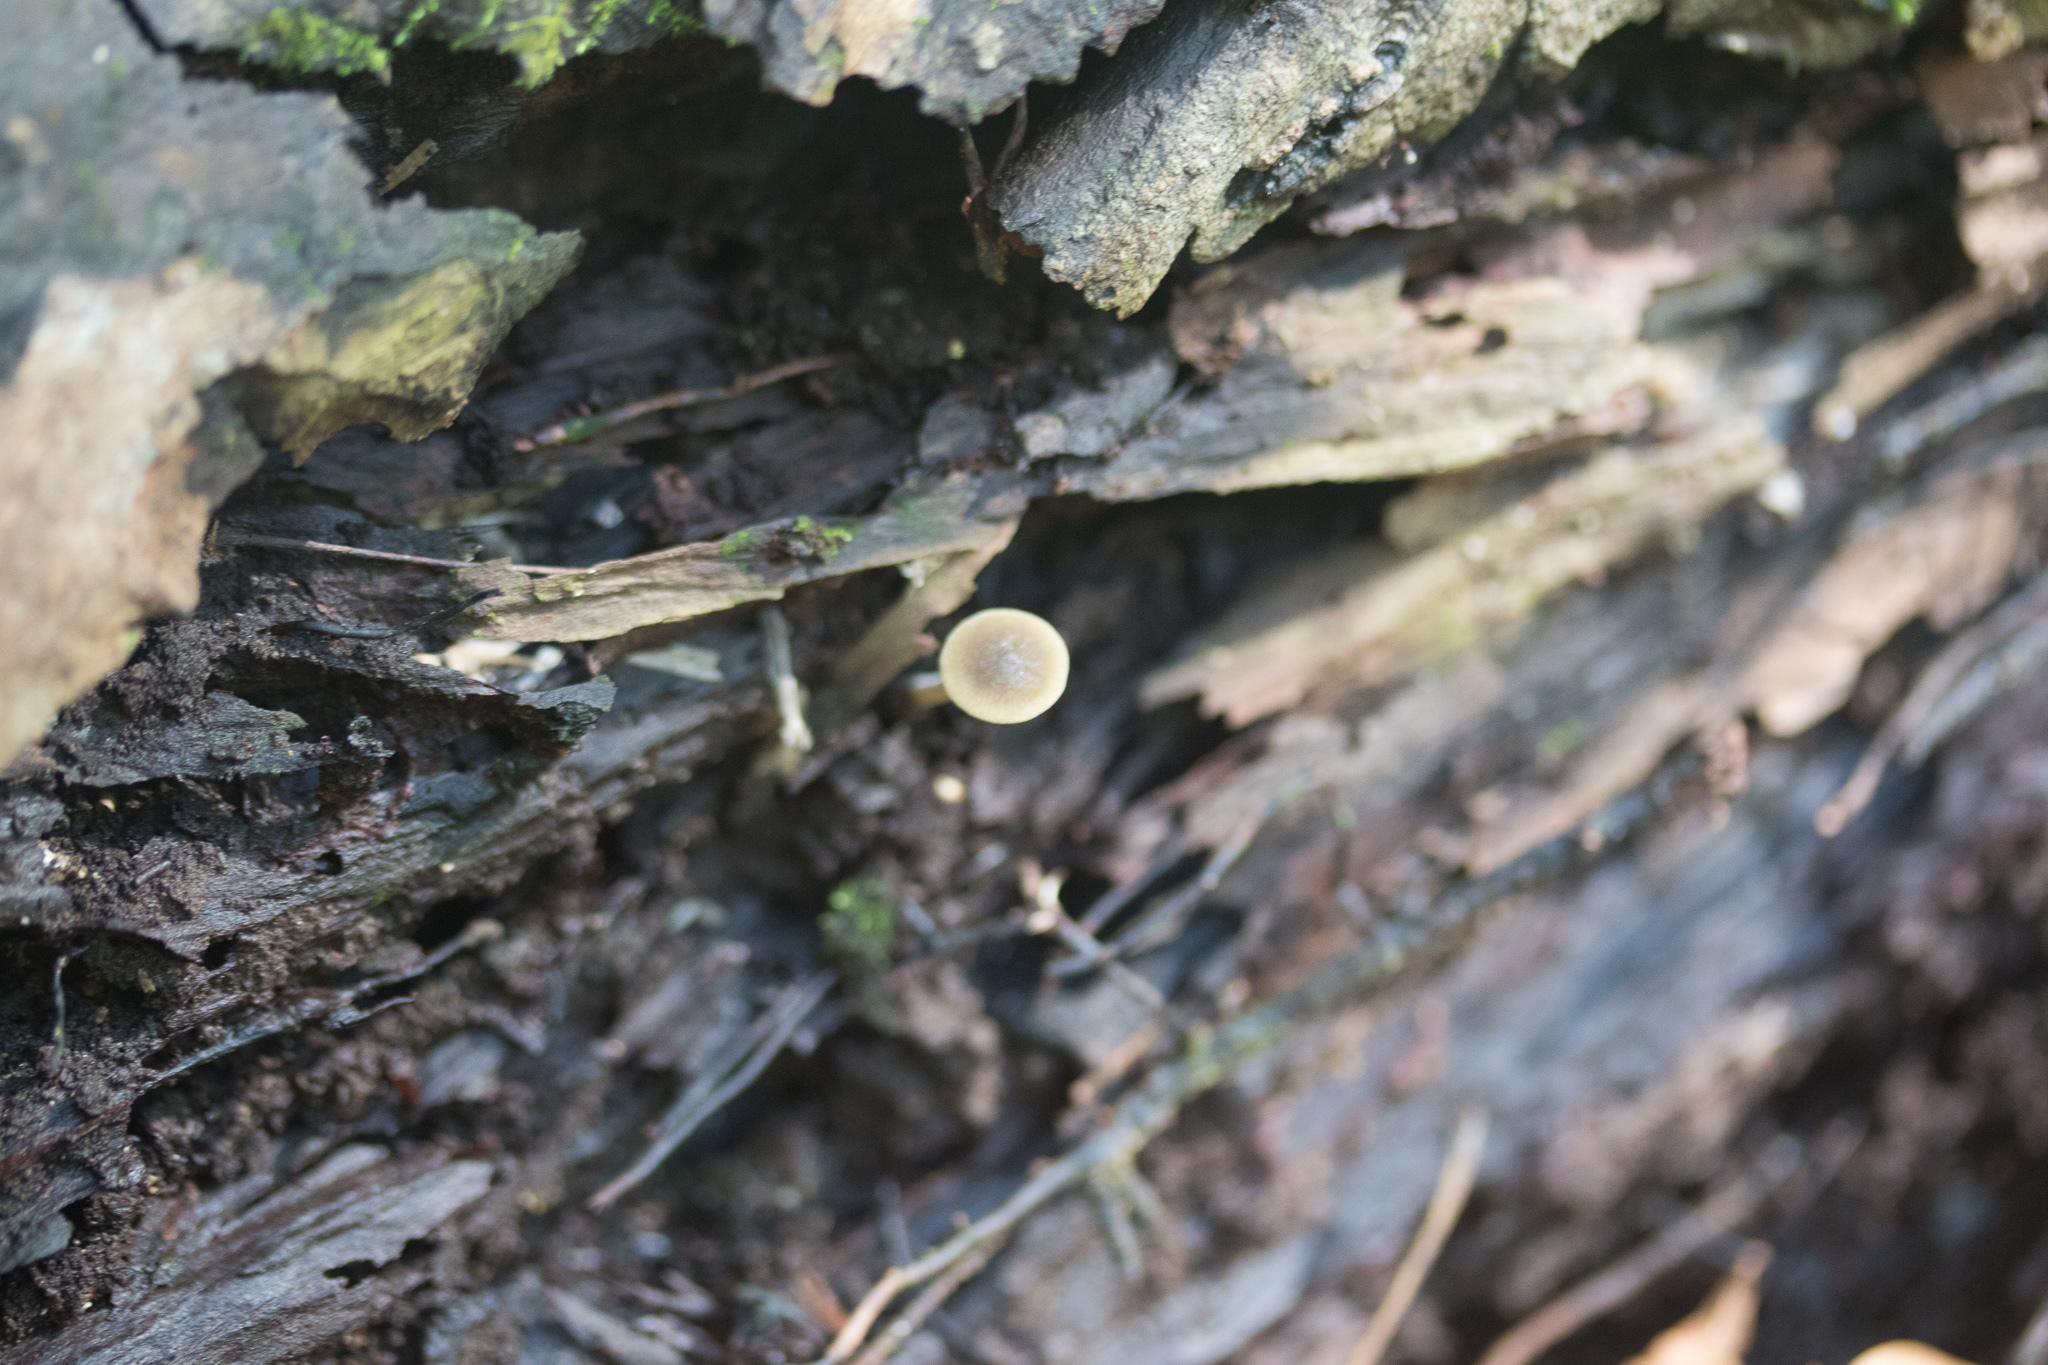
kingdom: Fungi
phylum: Basidiomycota
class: Agaricomycetes
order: Agaricales
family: Crepidotaceae
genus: Simocybe
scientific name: Simocybe centunculus
